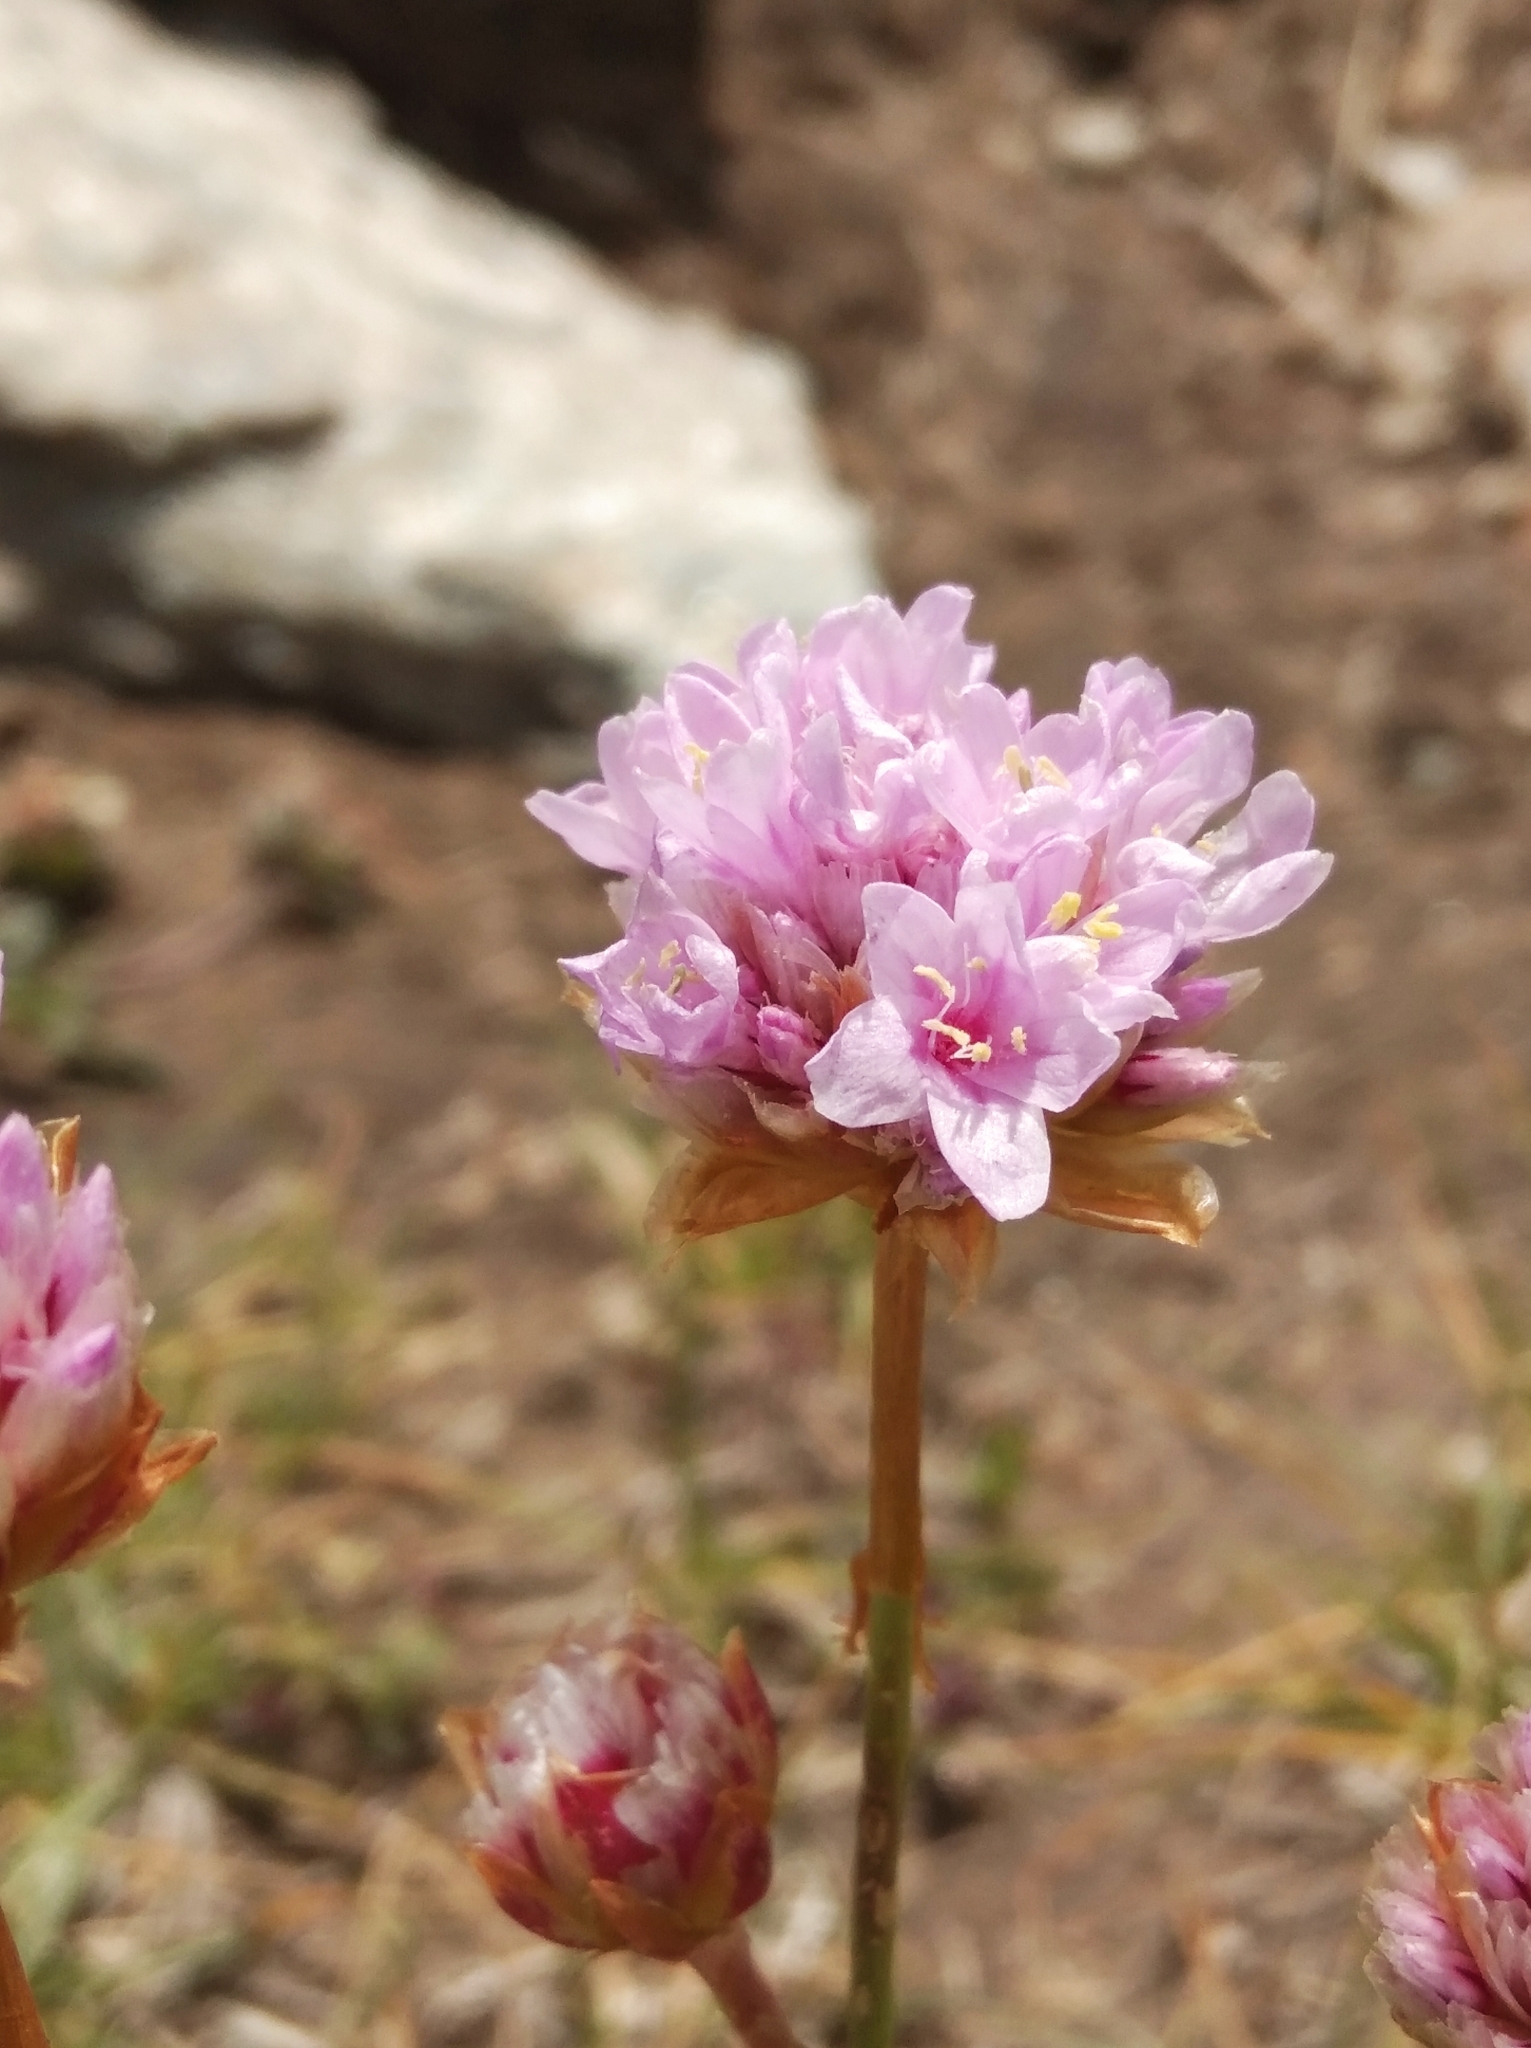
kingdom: Plantae
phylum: Tracheophyta
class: Magnoliopsida
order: Caryophyllales
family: Plumbaginaceae
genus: Armeria
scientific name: Armeria alpina
